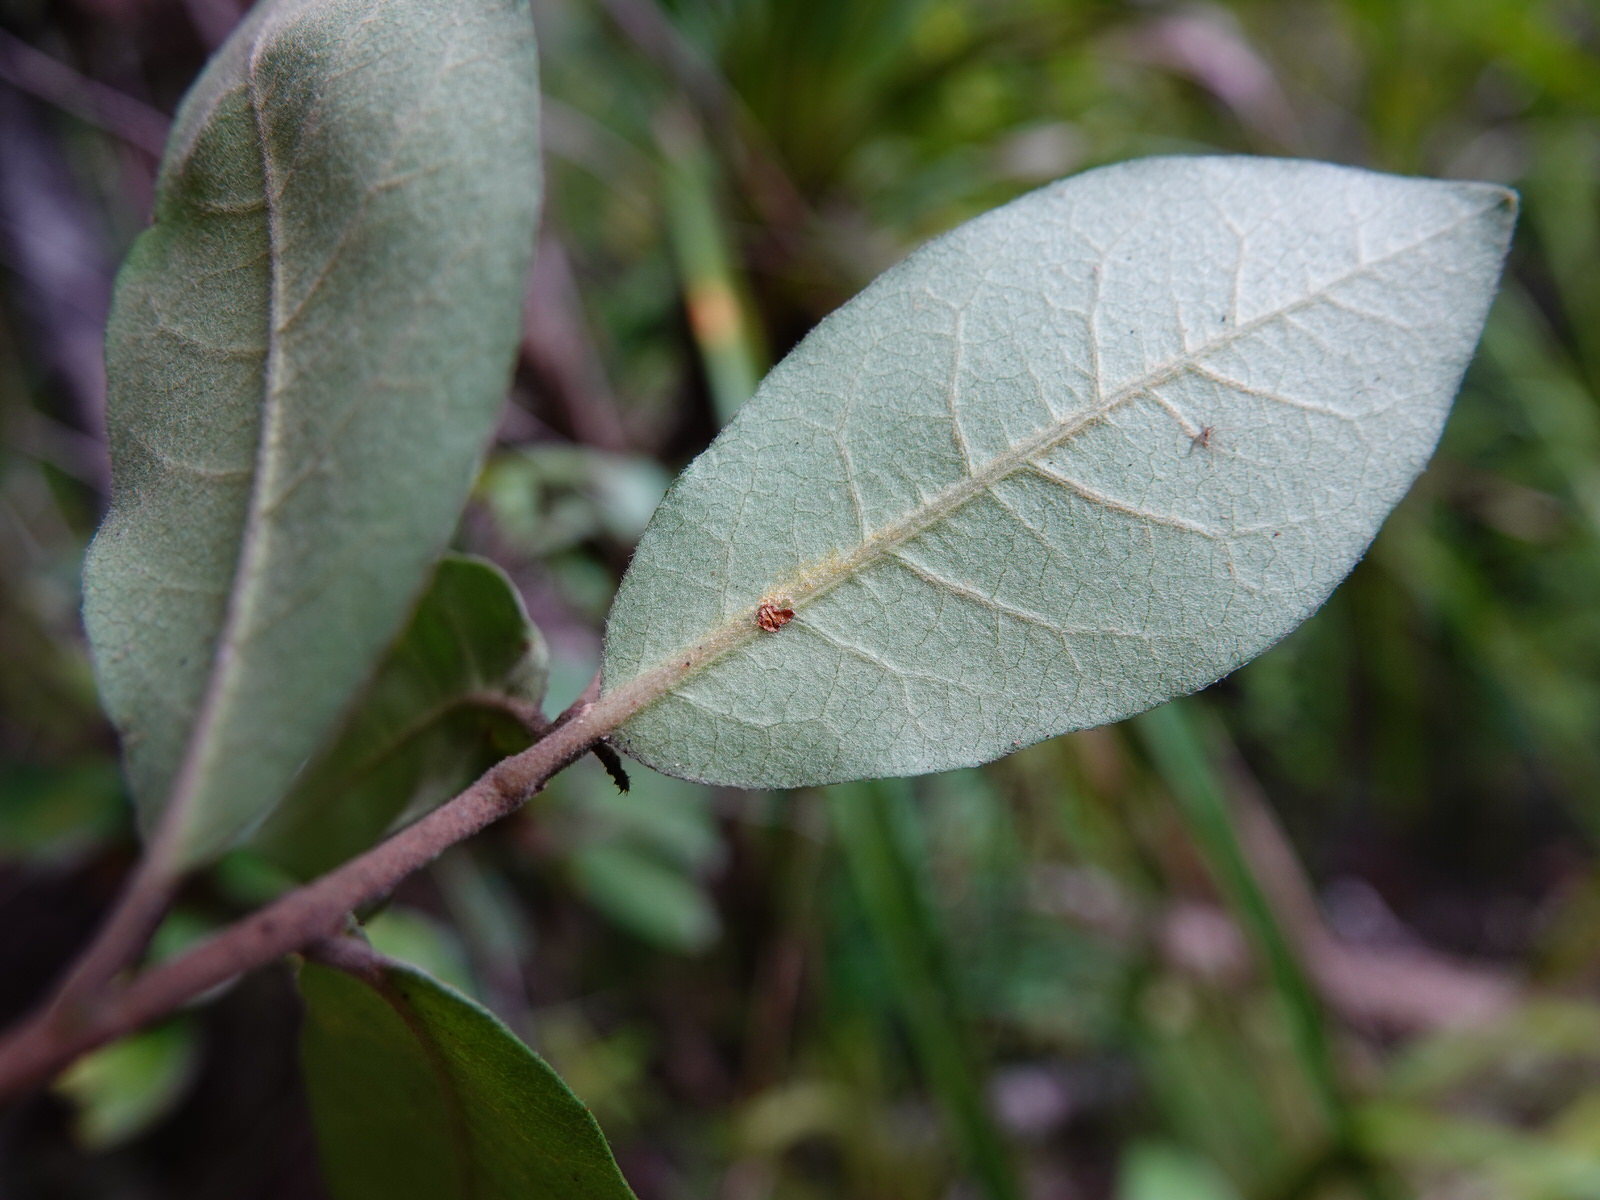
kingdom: Plantae
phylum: Tracheophyta
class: Magnoliopsida
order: Apiales
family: Pittosporaceae
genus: Pittosporum
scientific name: Pittosporum ellipticum
